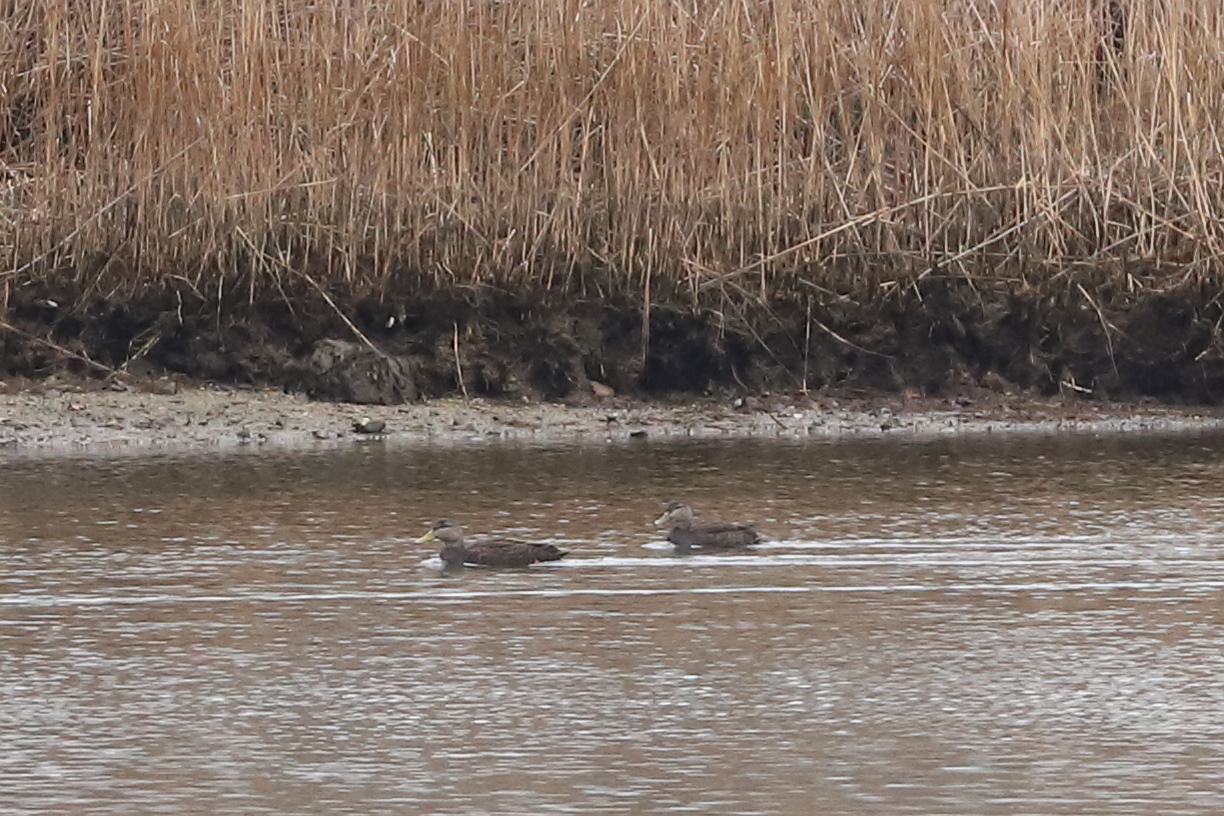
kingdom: Animalia
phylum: Chordata
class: Aves
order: Anseriformes
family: Anatidae
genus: Anas
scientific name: Anas rubripes
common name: American black duck
